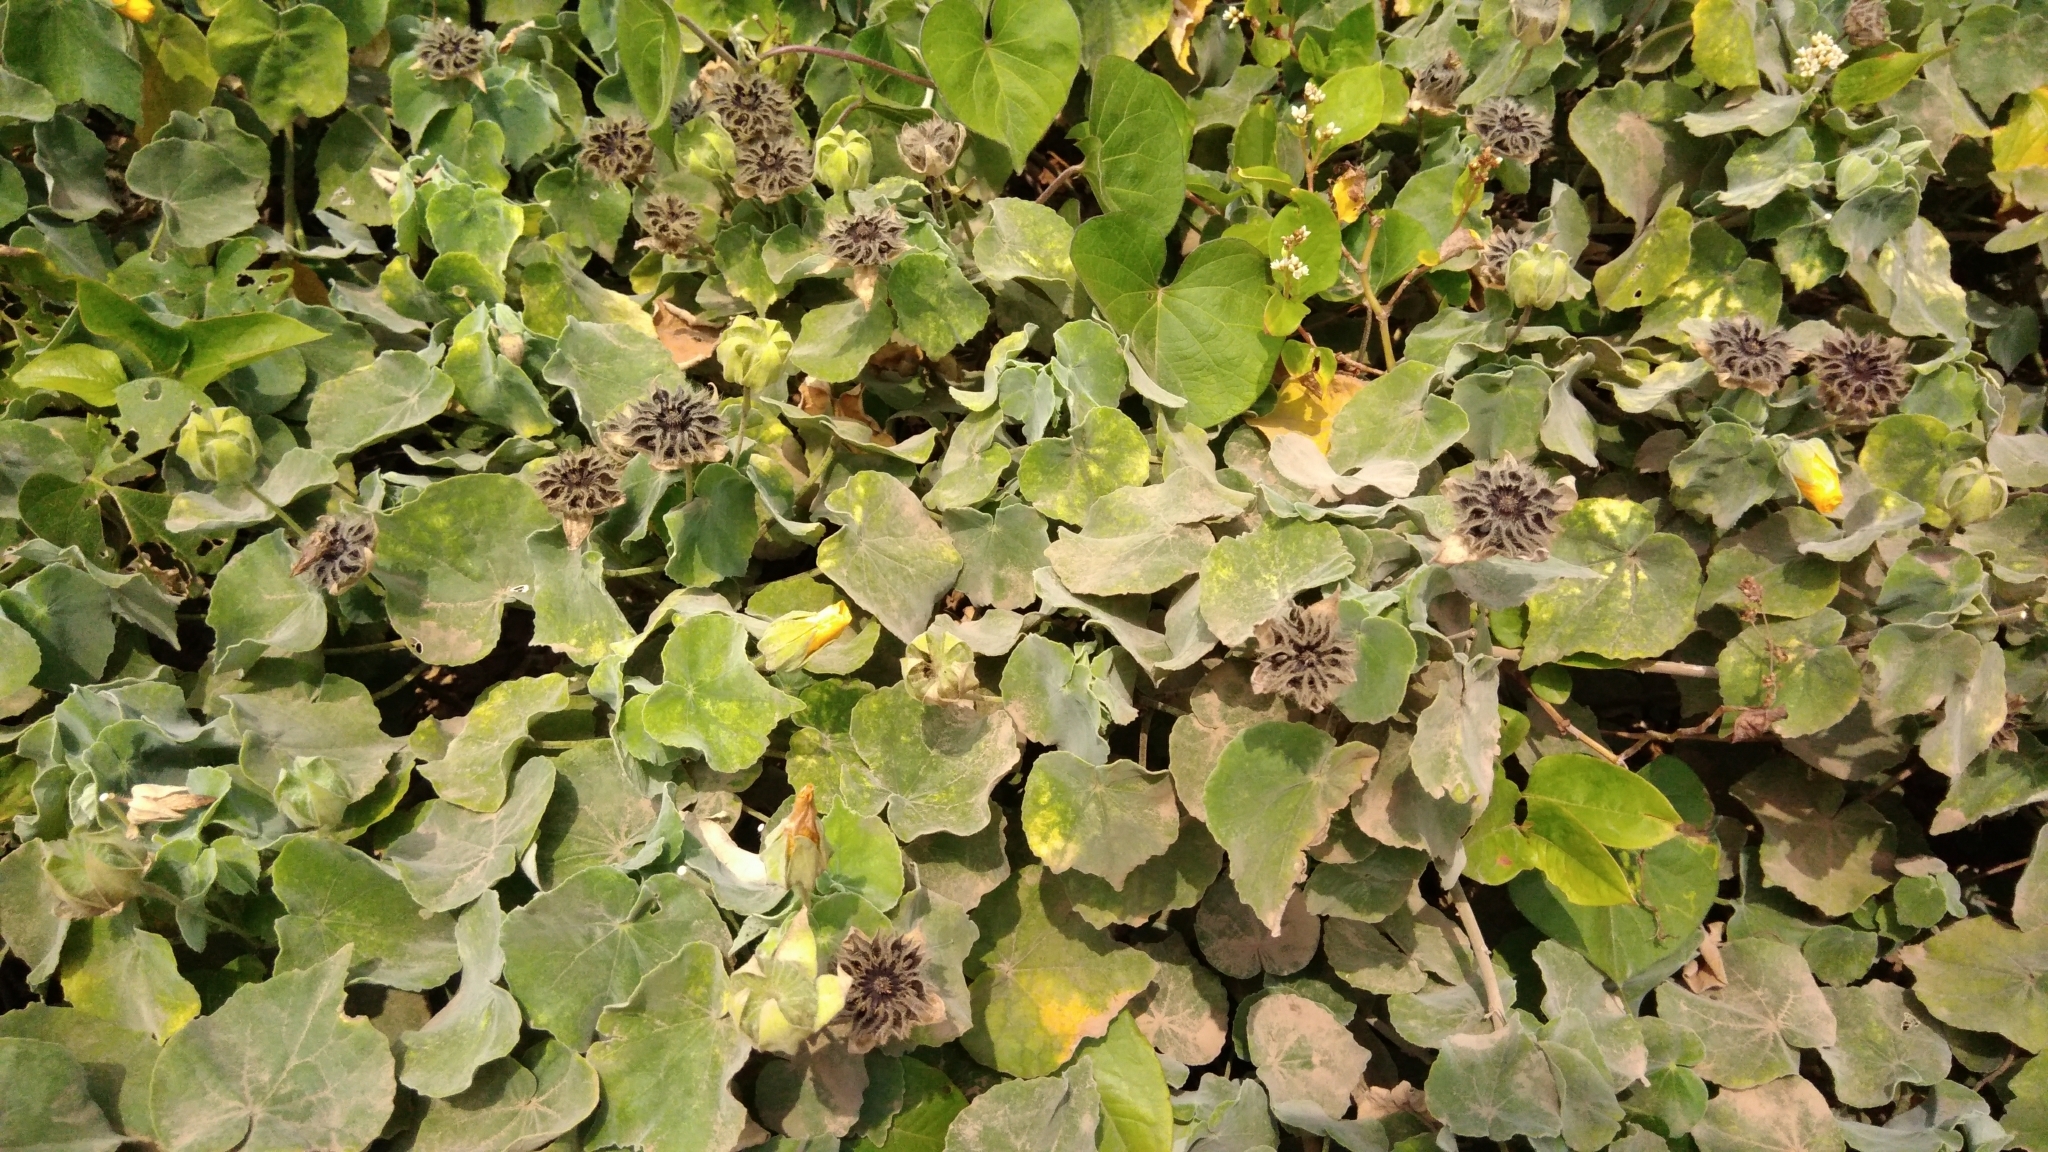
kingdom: Plantae
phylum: Tracheophyta
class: Magnoliopsida
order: Malvales
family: Malvaceae
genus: Abutilon
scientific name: Abutilon indicum
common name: Indian abutilon
